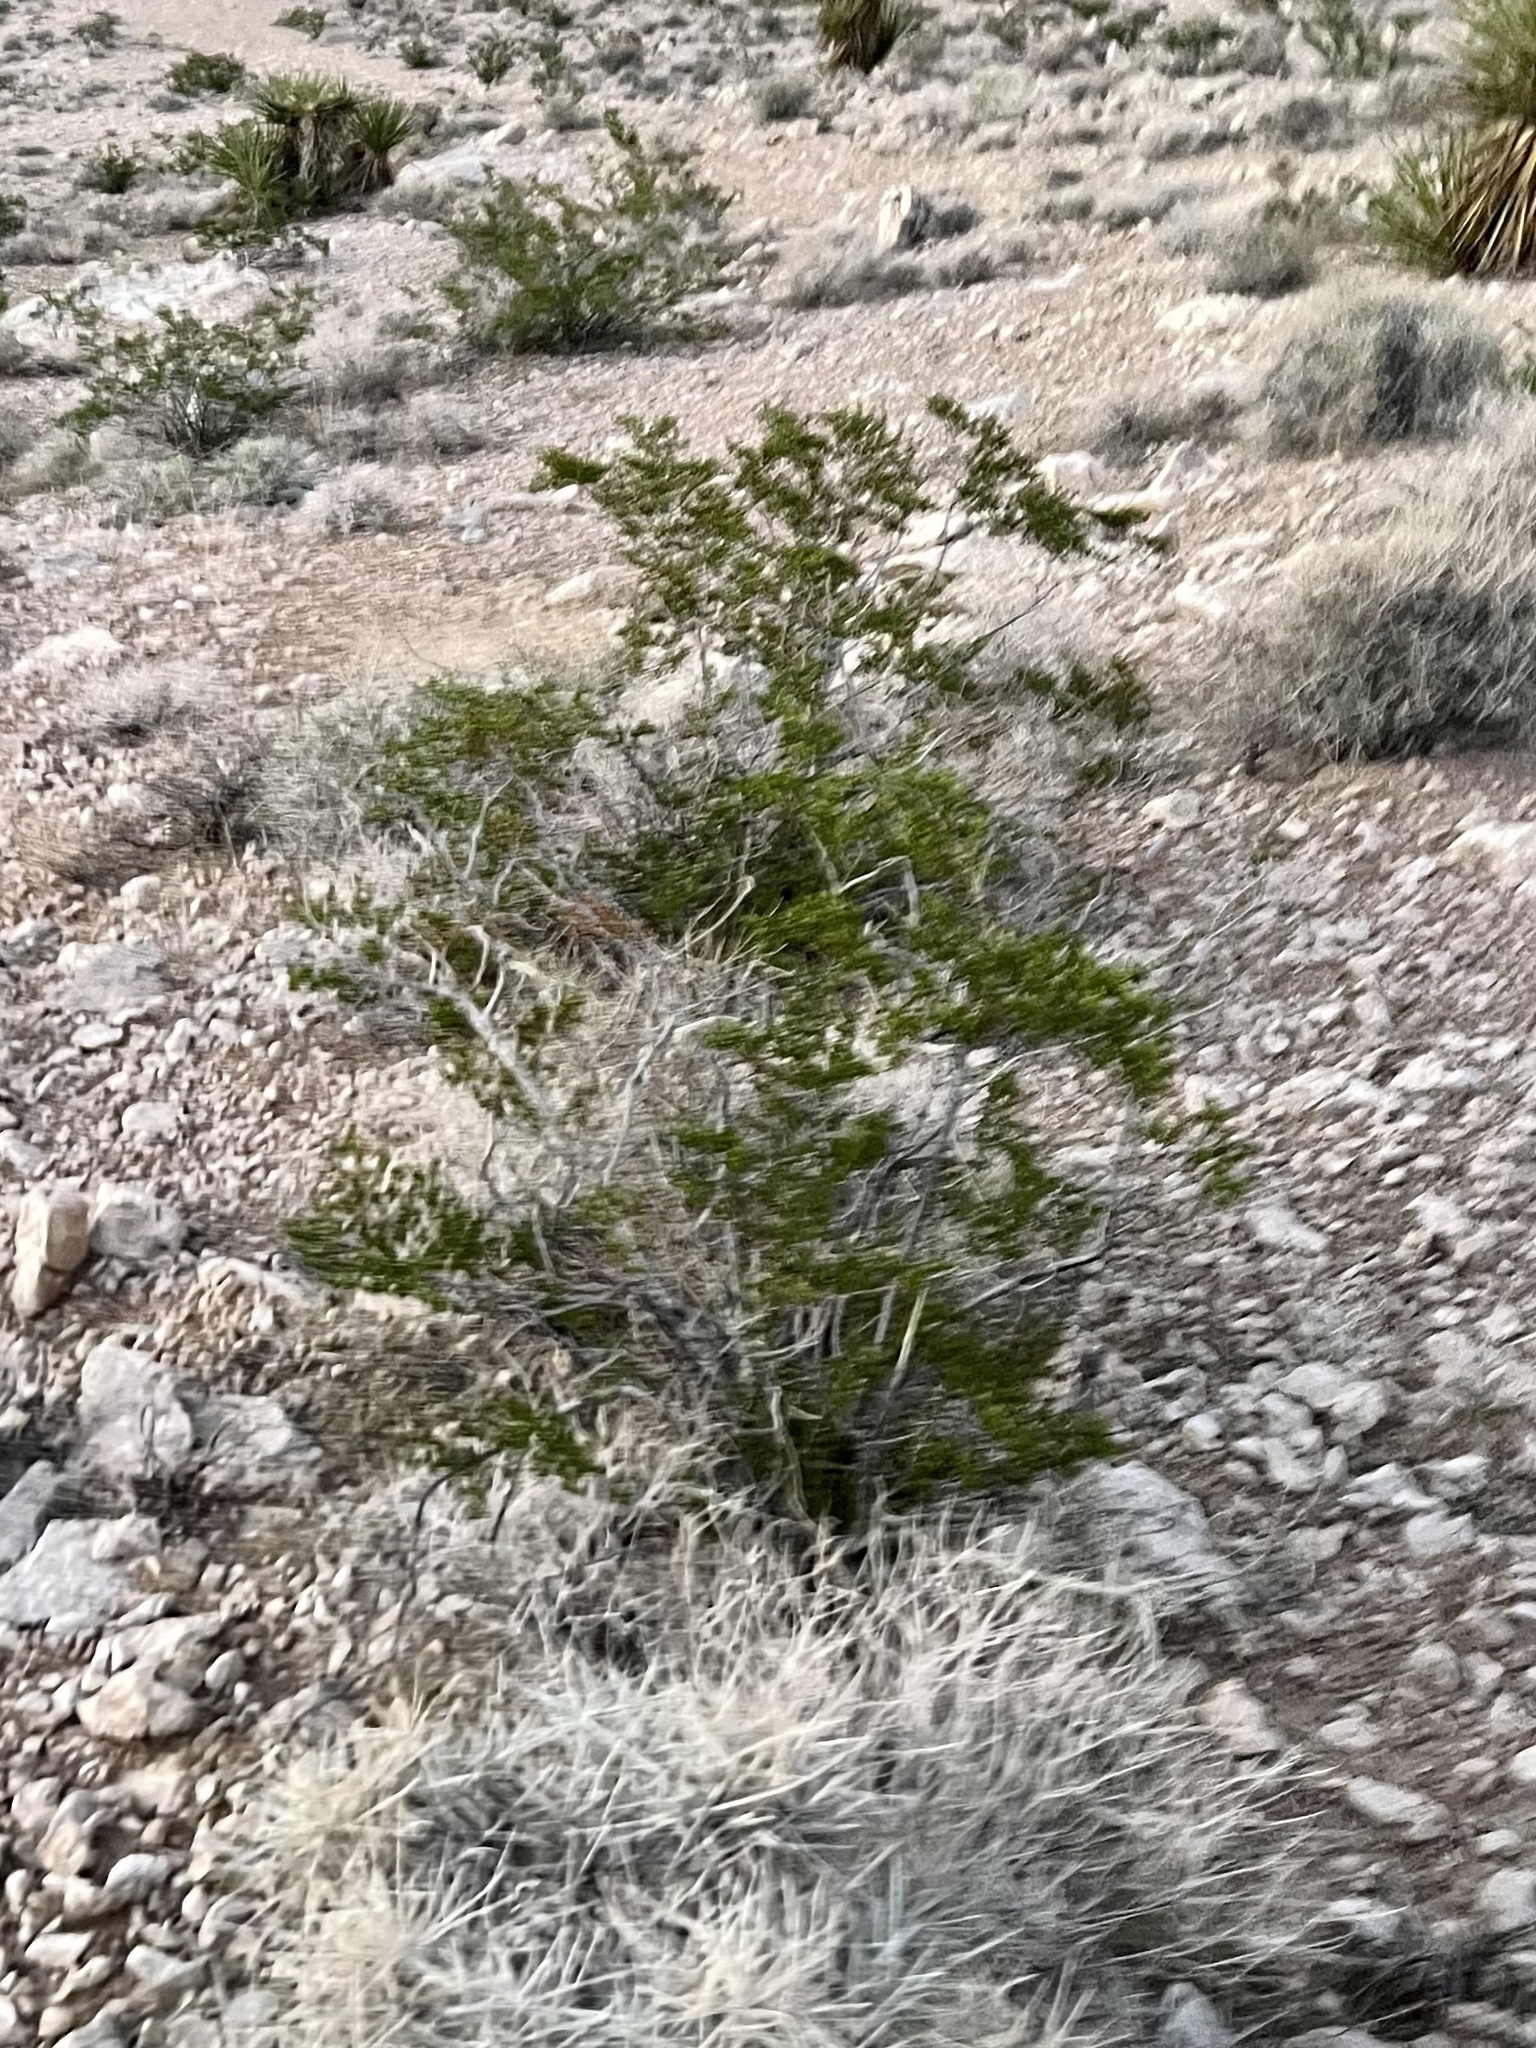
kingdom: Plantae
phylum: Tracheophyta
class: Magnoliopsida
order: Zygophyllales
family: Zygophyllaceae
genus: Larrea
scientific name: Larrea tridentata
